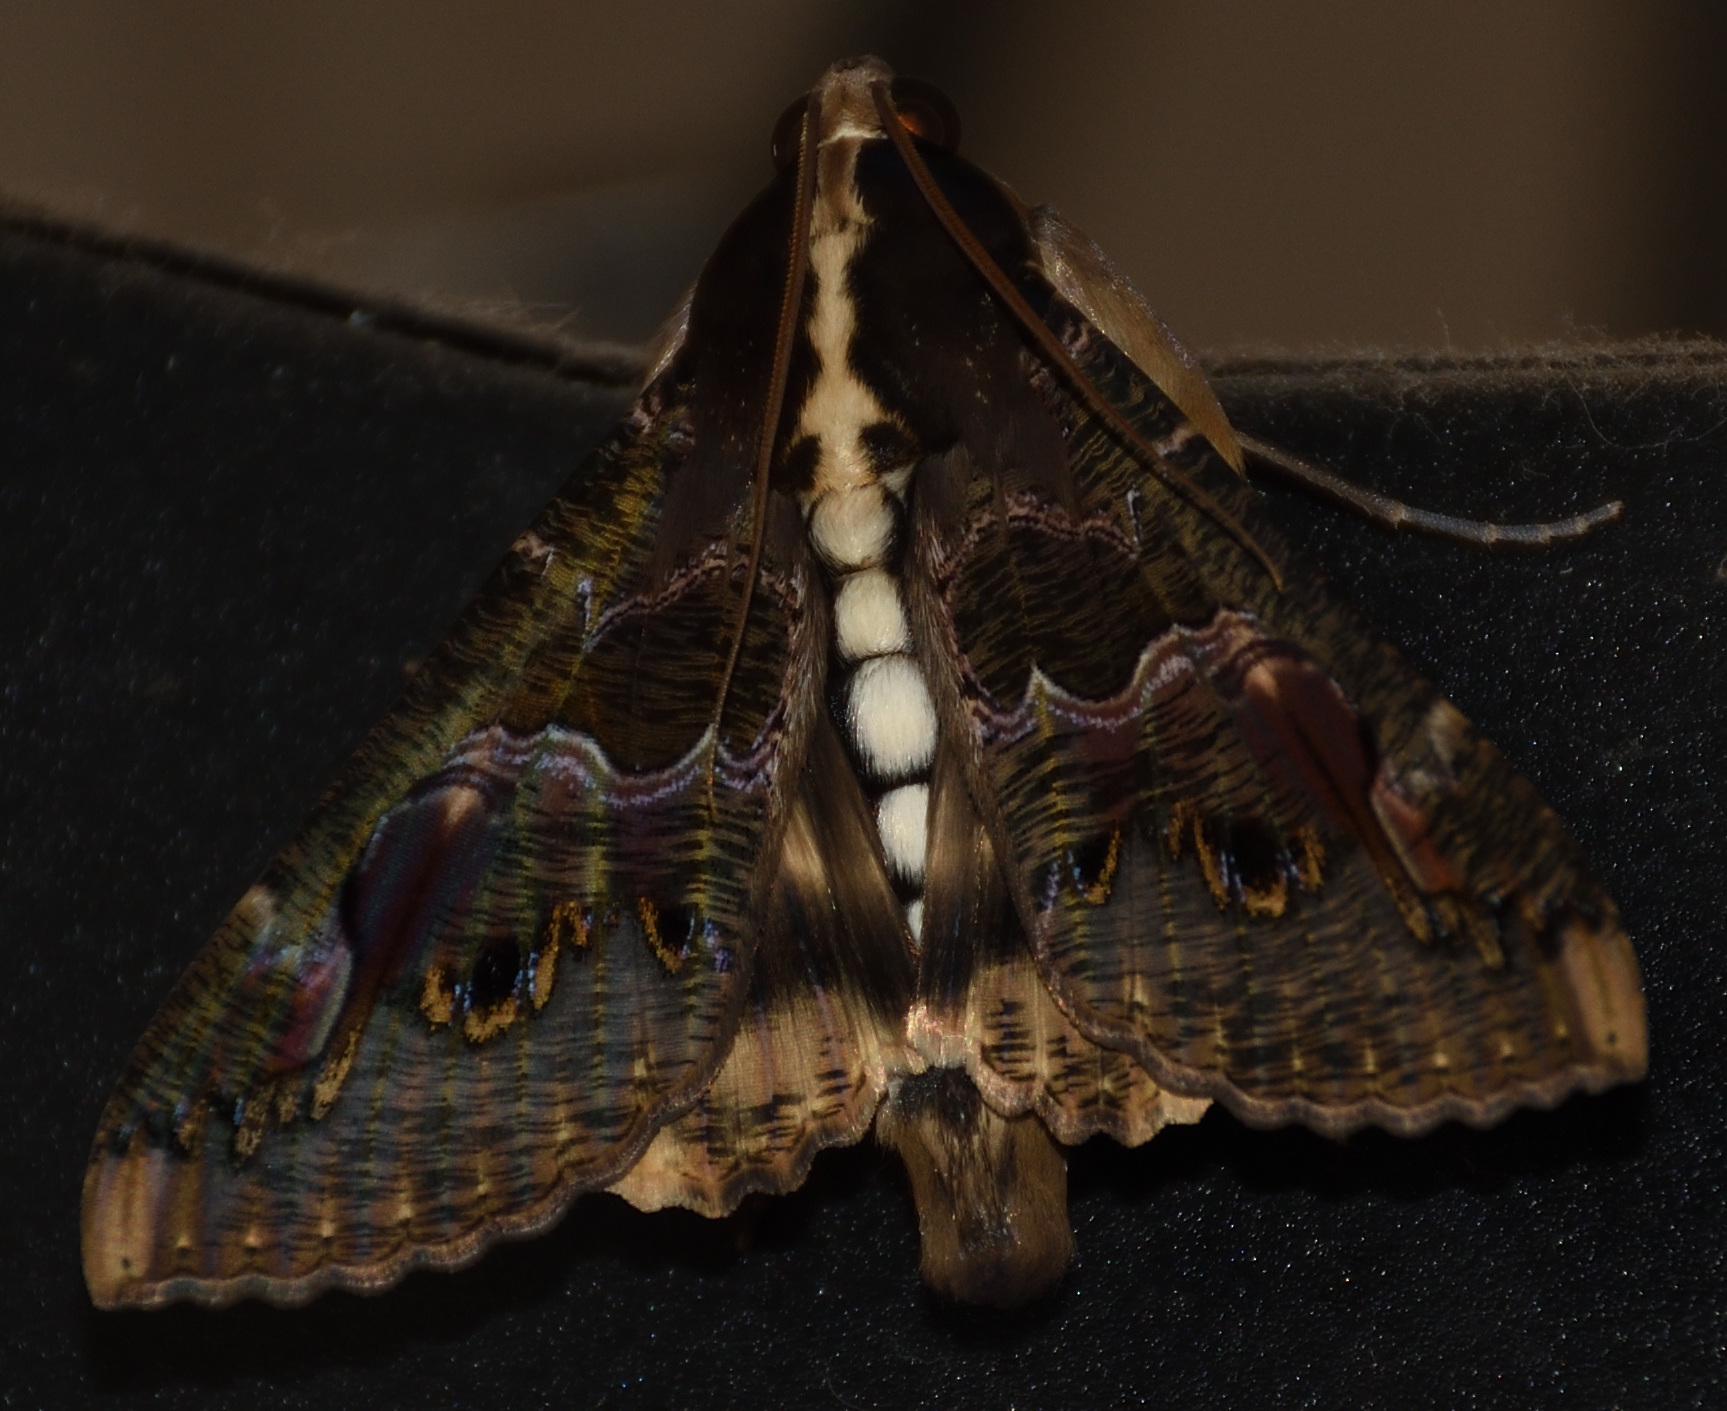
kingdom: Animalia
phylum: Arthropoda
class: Insecta
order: Lepidoptera
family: Erebidae
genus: Sphingomorpha
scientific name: Sphingomorpha chlorea
